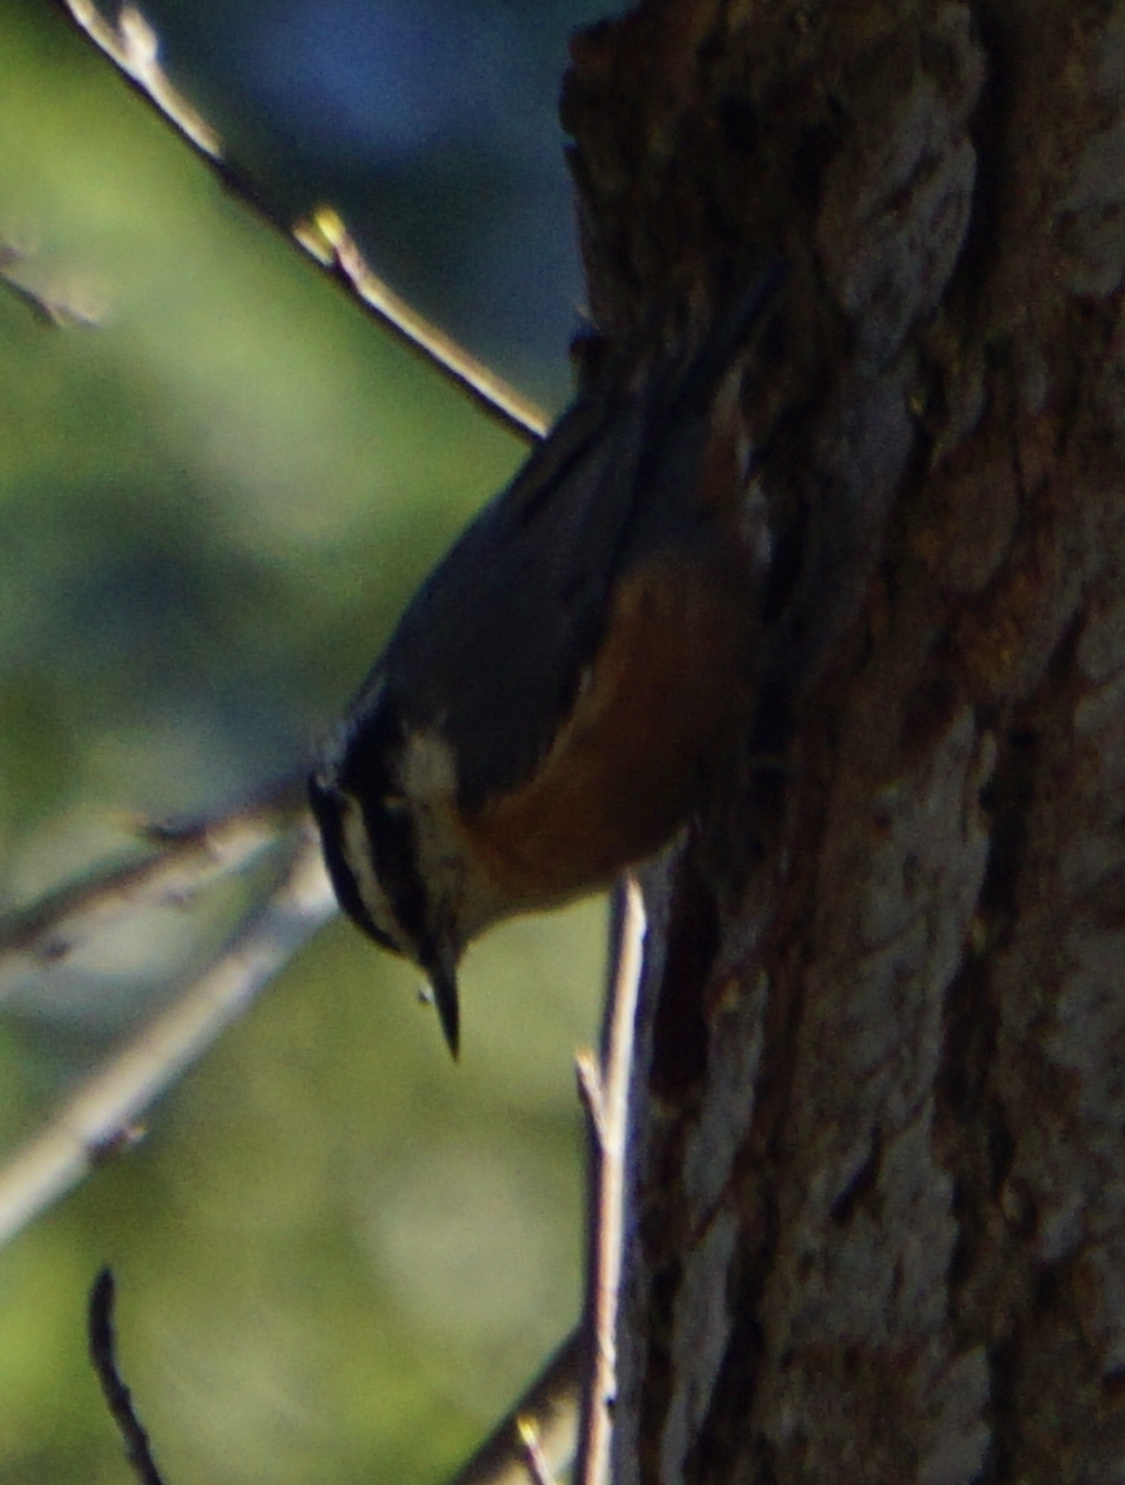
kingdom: Animalia
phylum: Chordata
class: Aves
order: Passeriformes
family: Sittidae
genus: Sitta
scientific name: Sitta canadensis
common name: Red-breasted nuthatch
